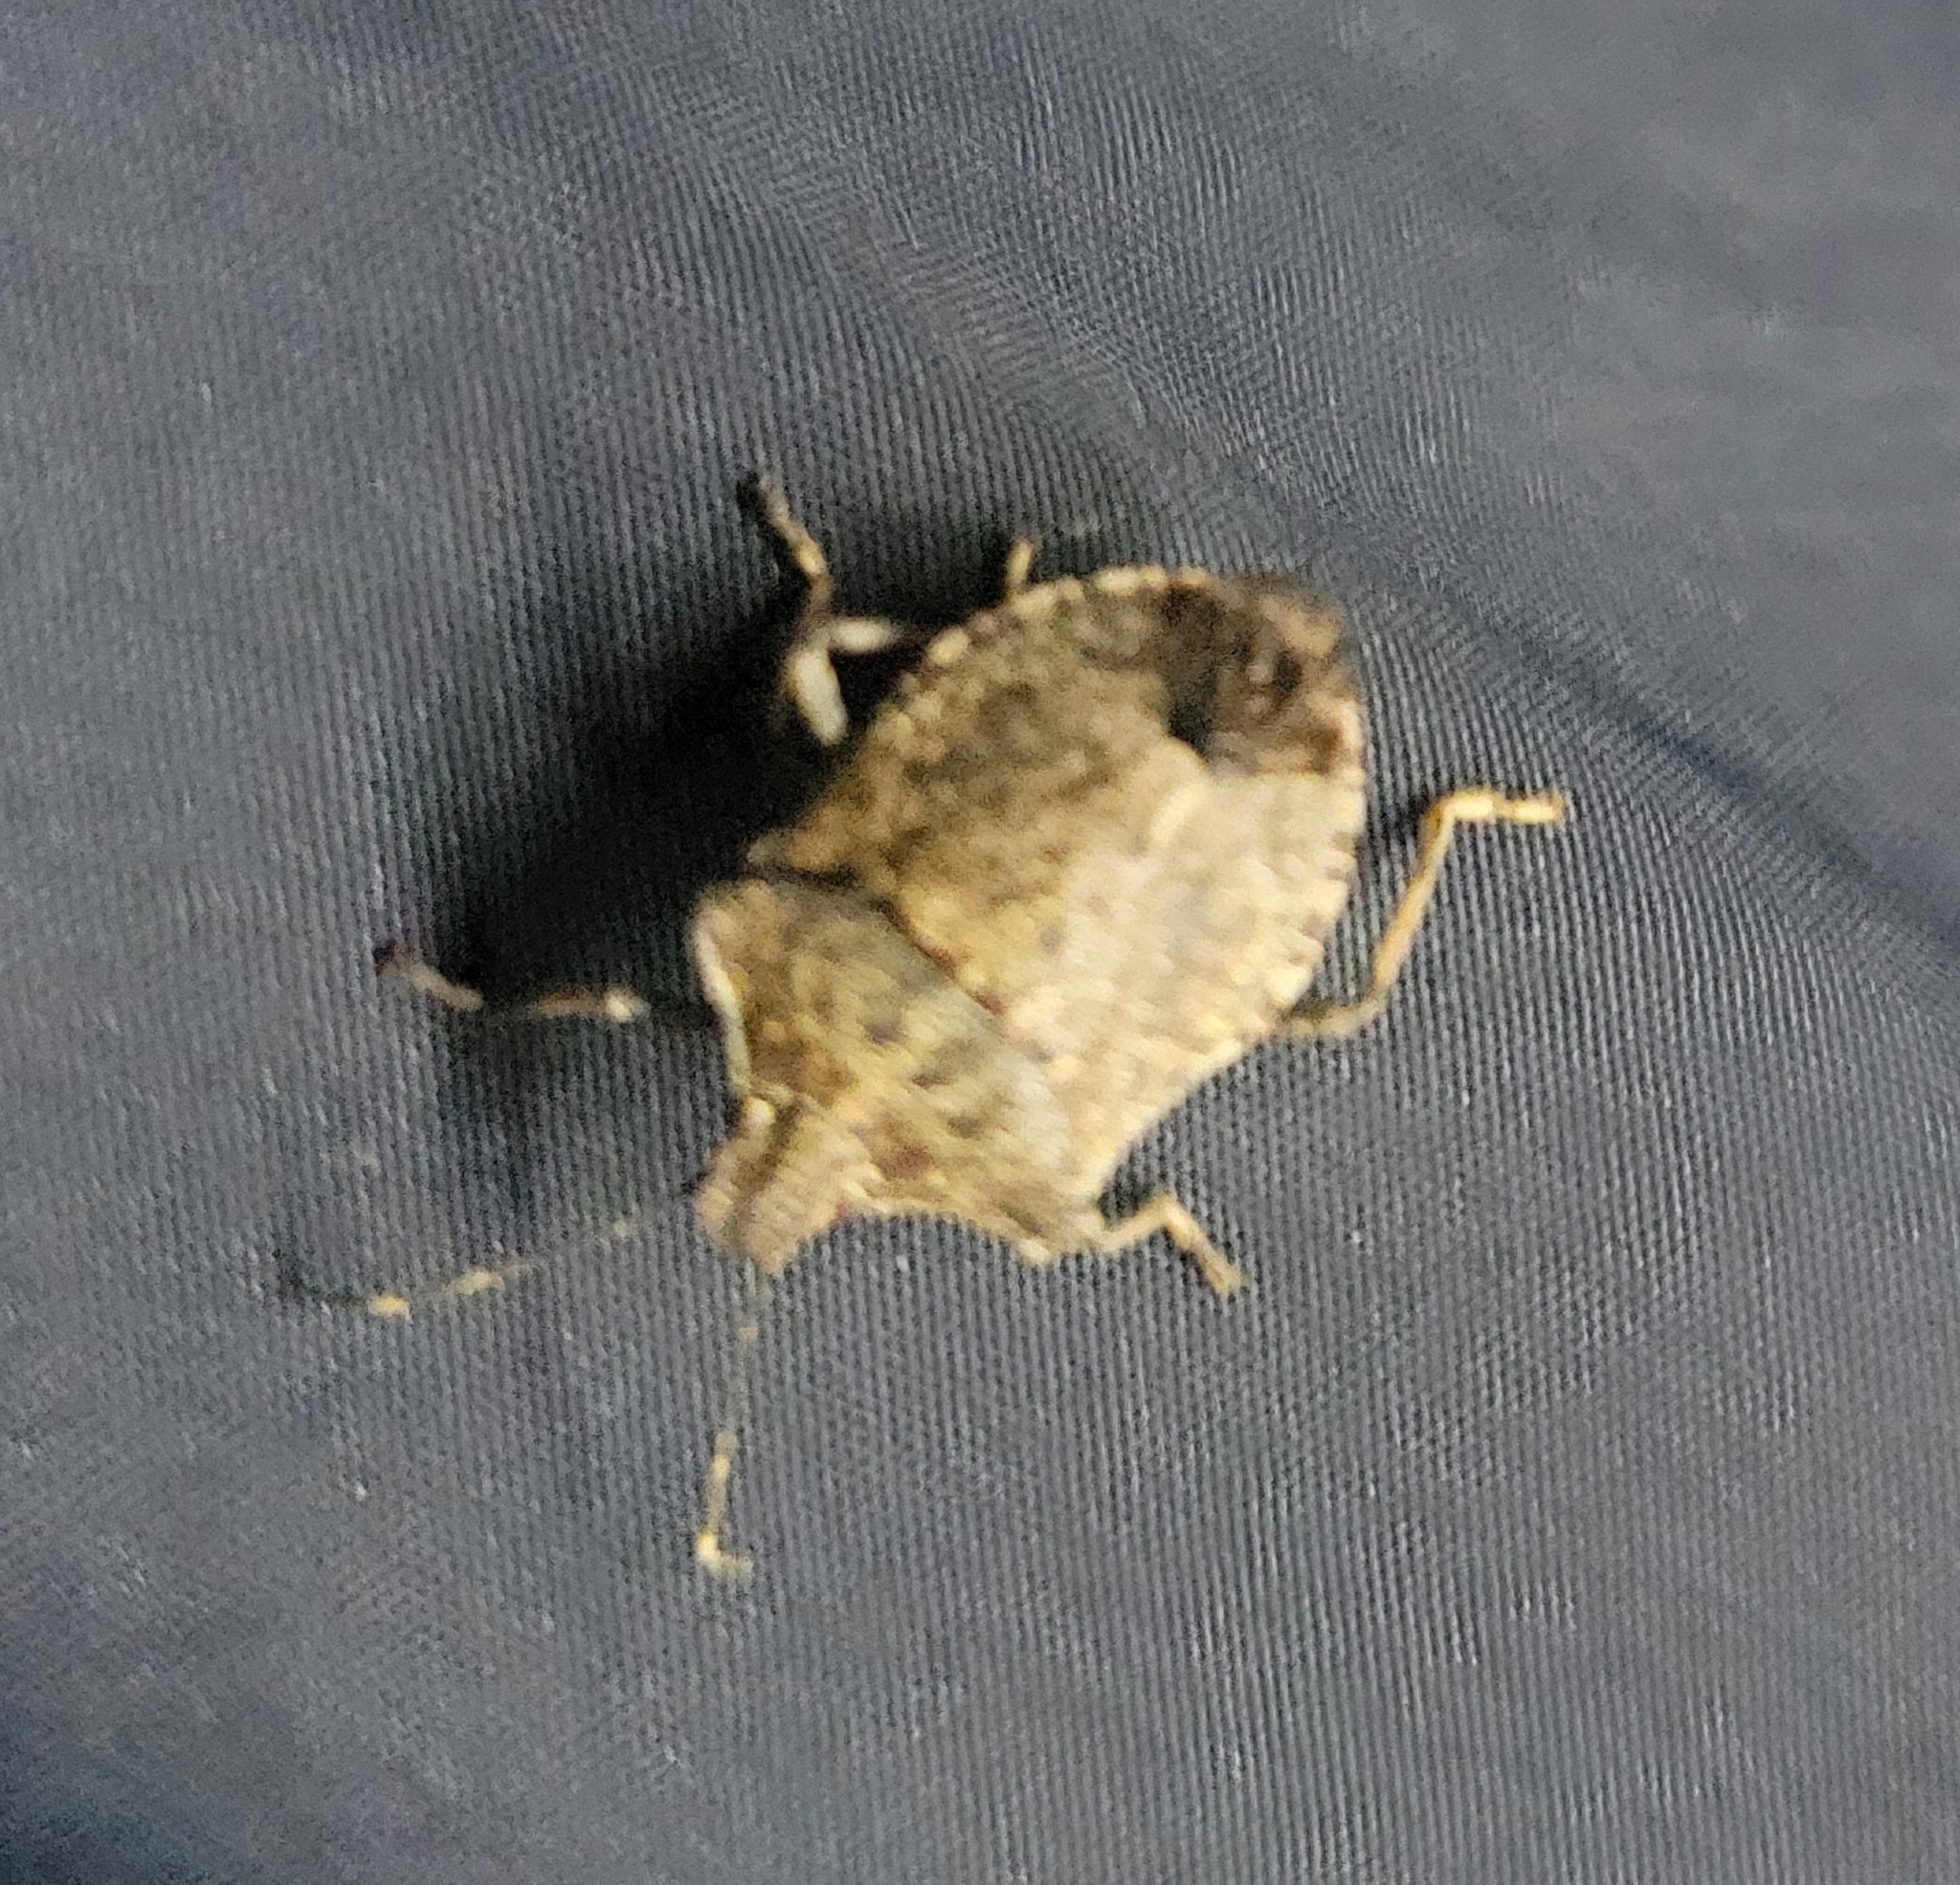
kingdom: Animalia
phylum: Arthropoda
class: Insecta
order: Hemiptera
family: Pentatomidae
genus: Halyomorpha
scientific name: Halyomorpha halys
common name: Brown marmorated stink bug
